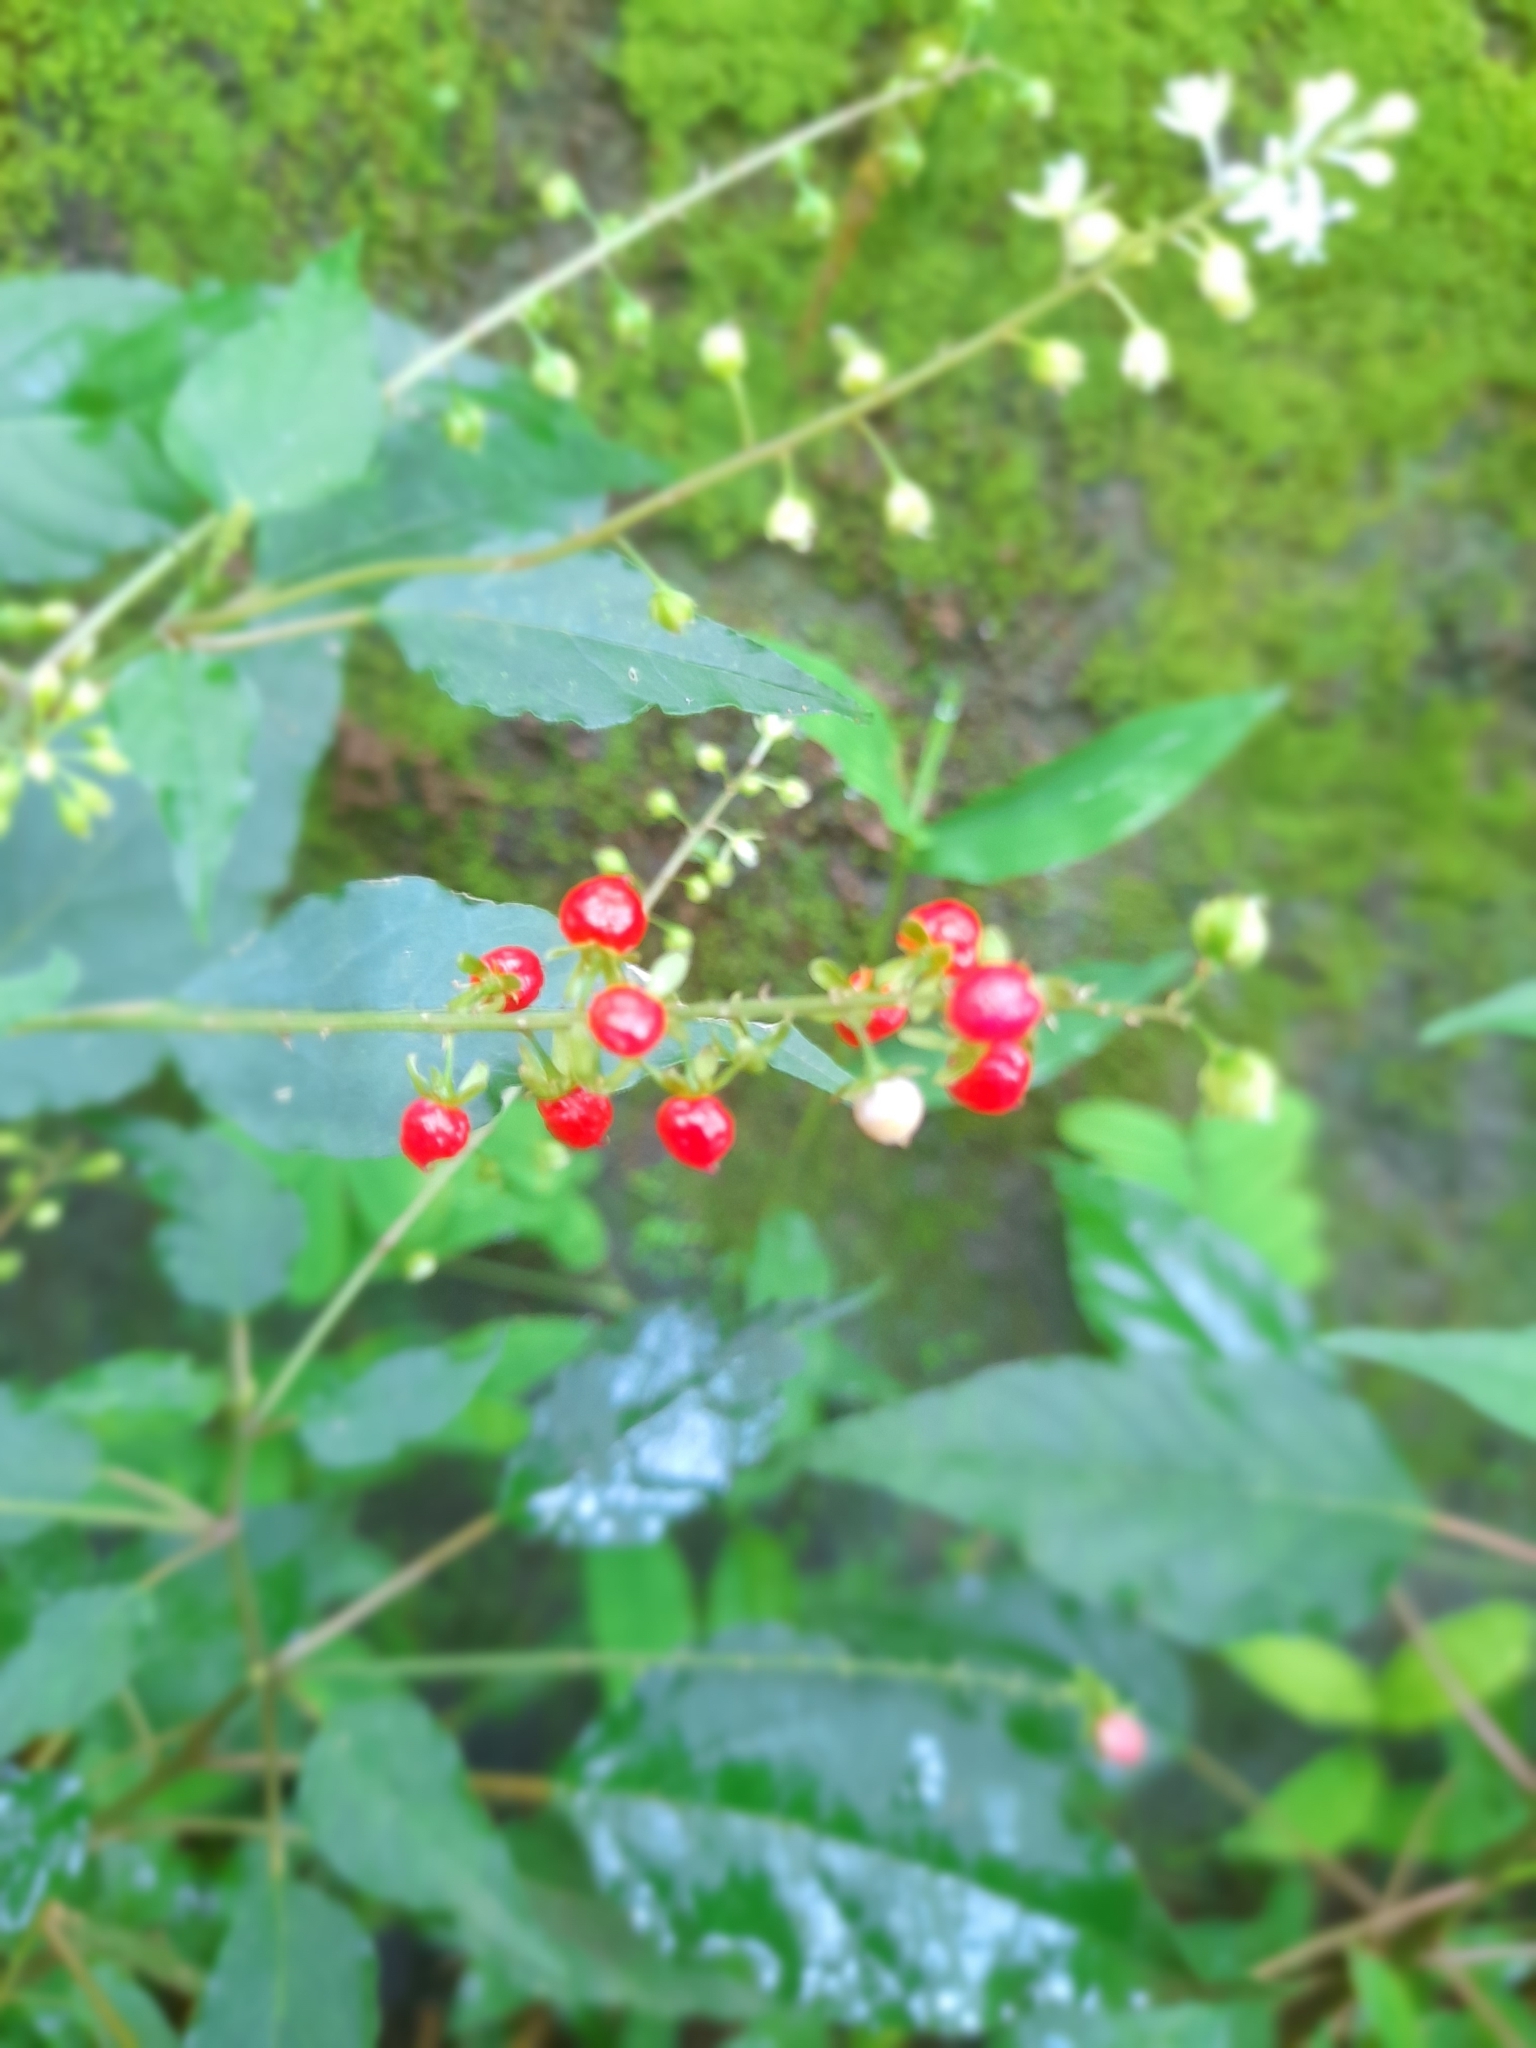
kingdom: Plantae
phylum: Tracheophyta
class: Magnoliopsida
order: Caryophyllales
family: Phytolaccaceae
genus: Rivina
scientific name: Rivina humilis
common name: Rougeplant
